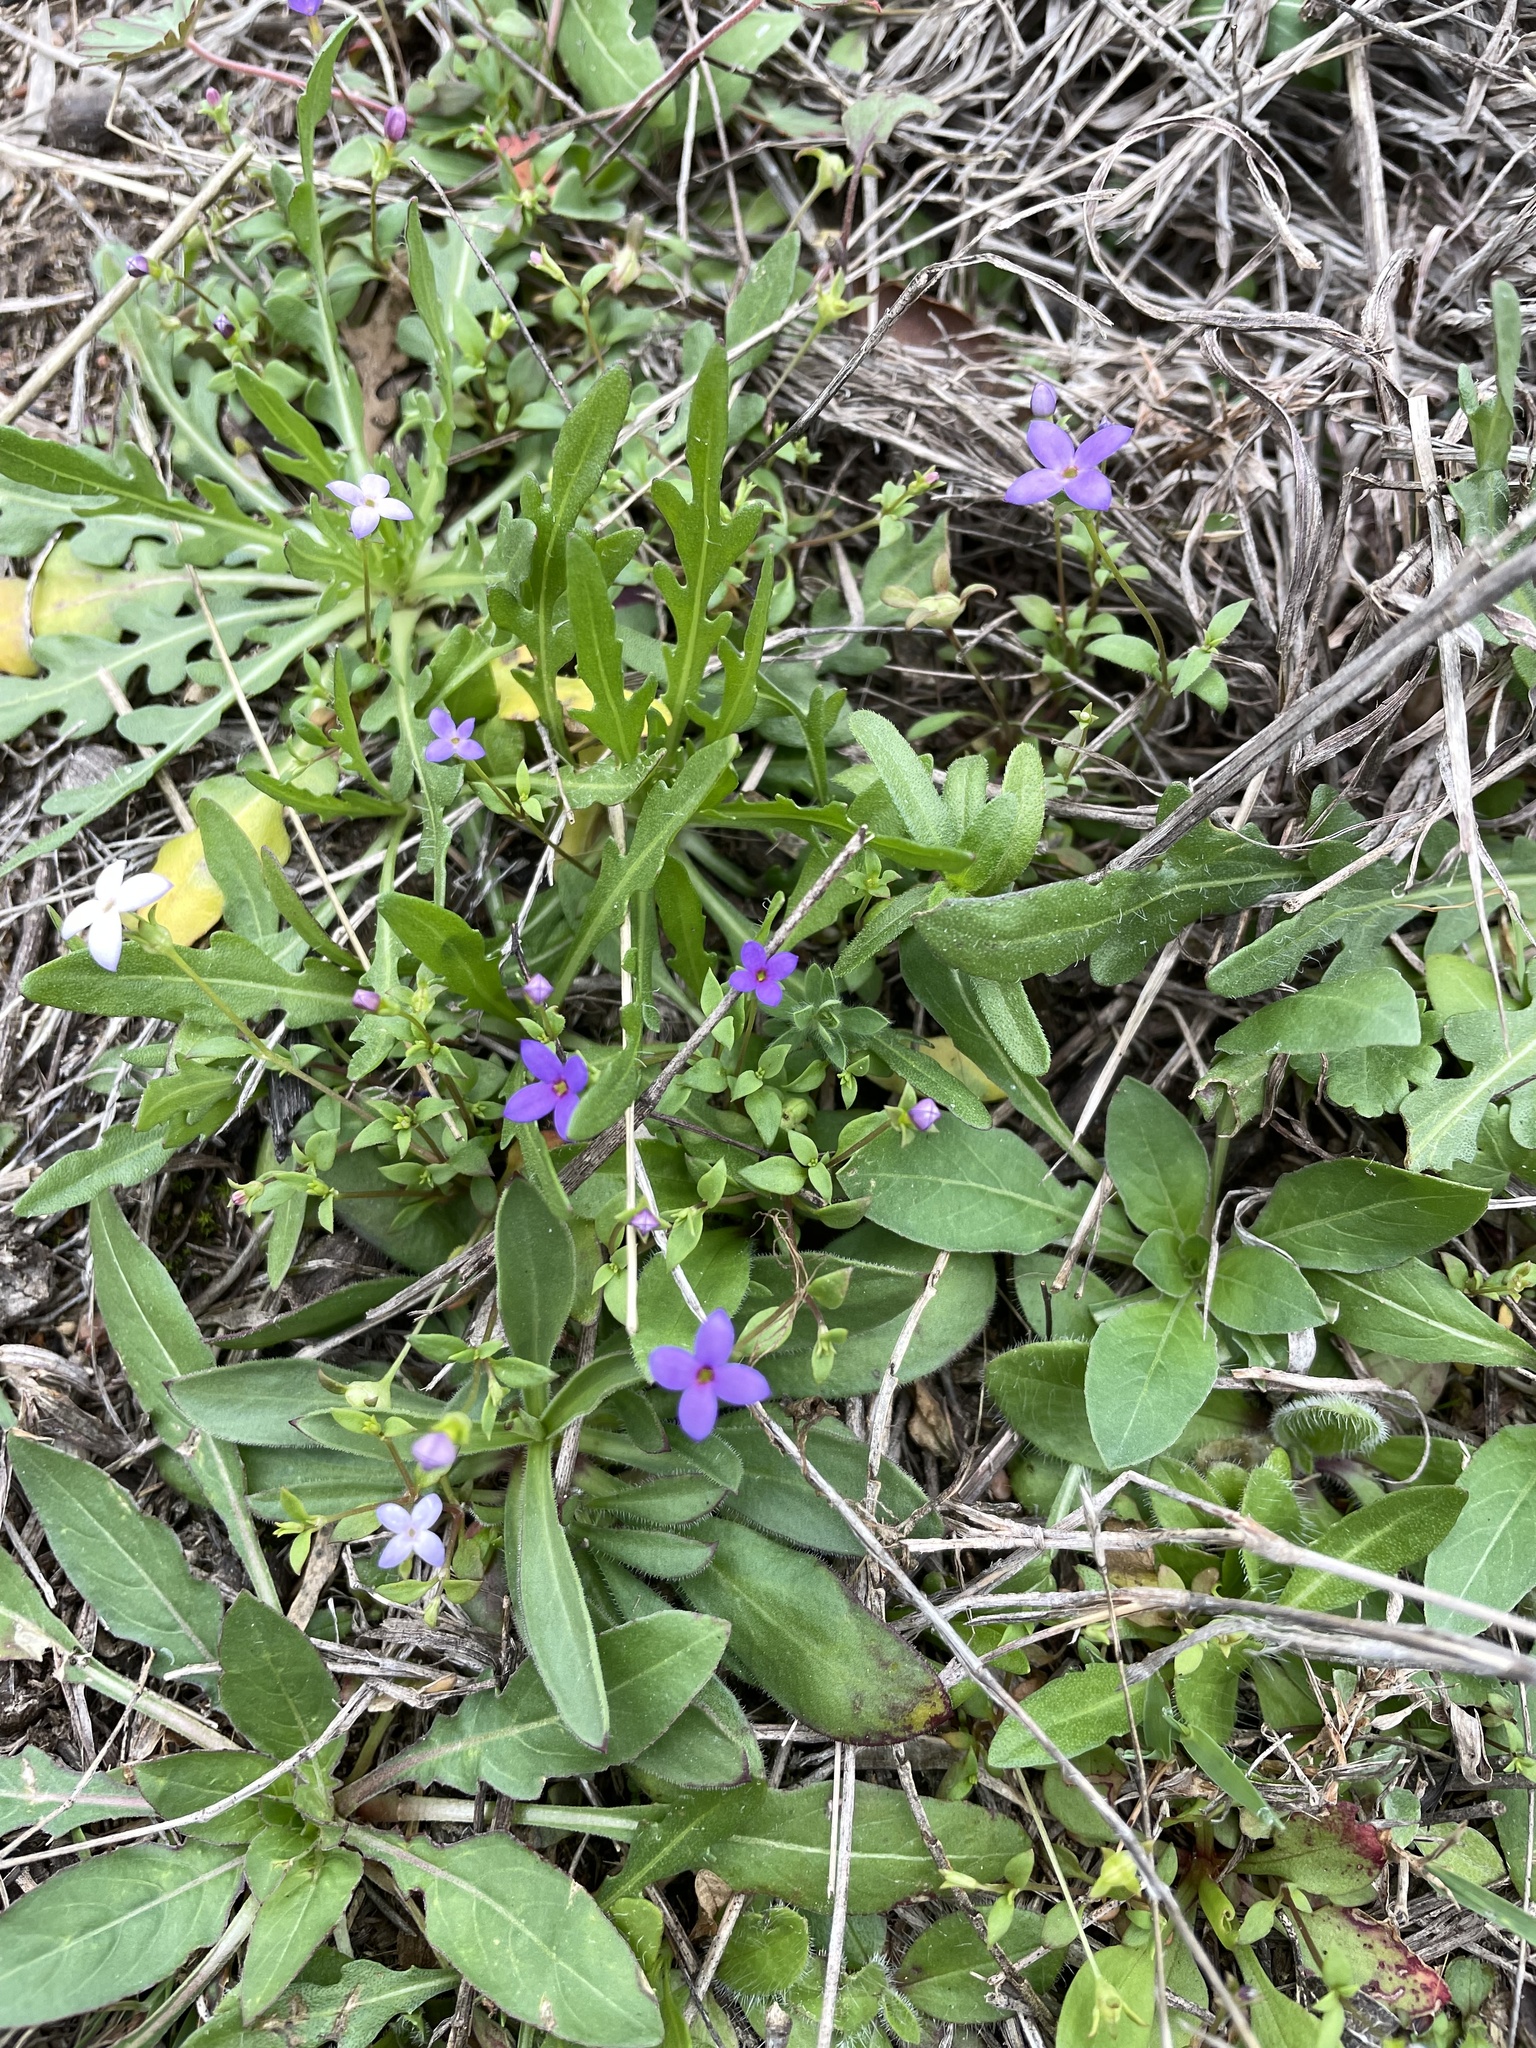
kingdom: Plantae
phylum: Tracheophyta
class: Magnoliopsida
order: Gentianales
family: Rubiaceae
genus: Houstonia
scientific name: Houstonia pusilla
